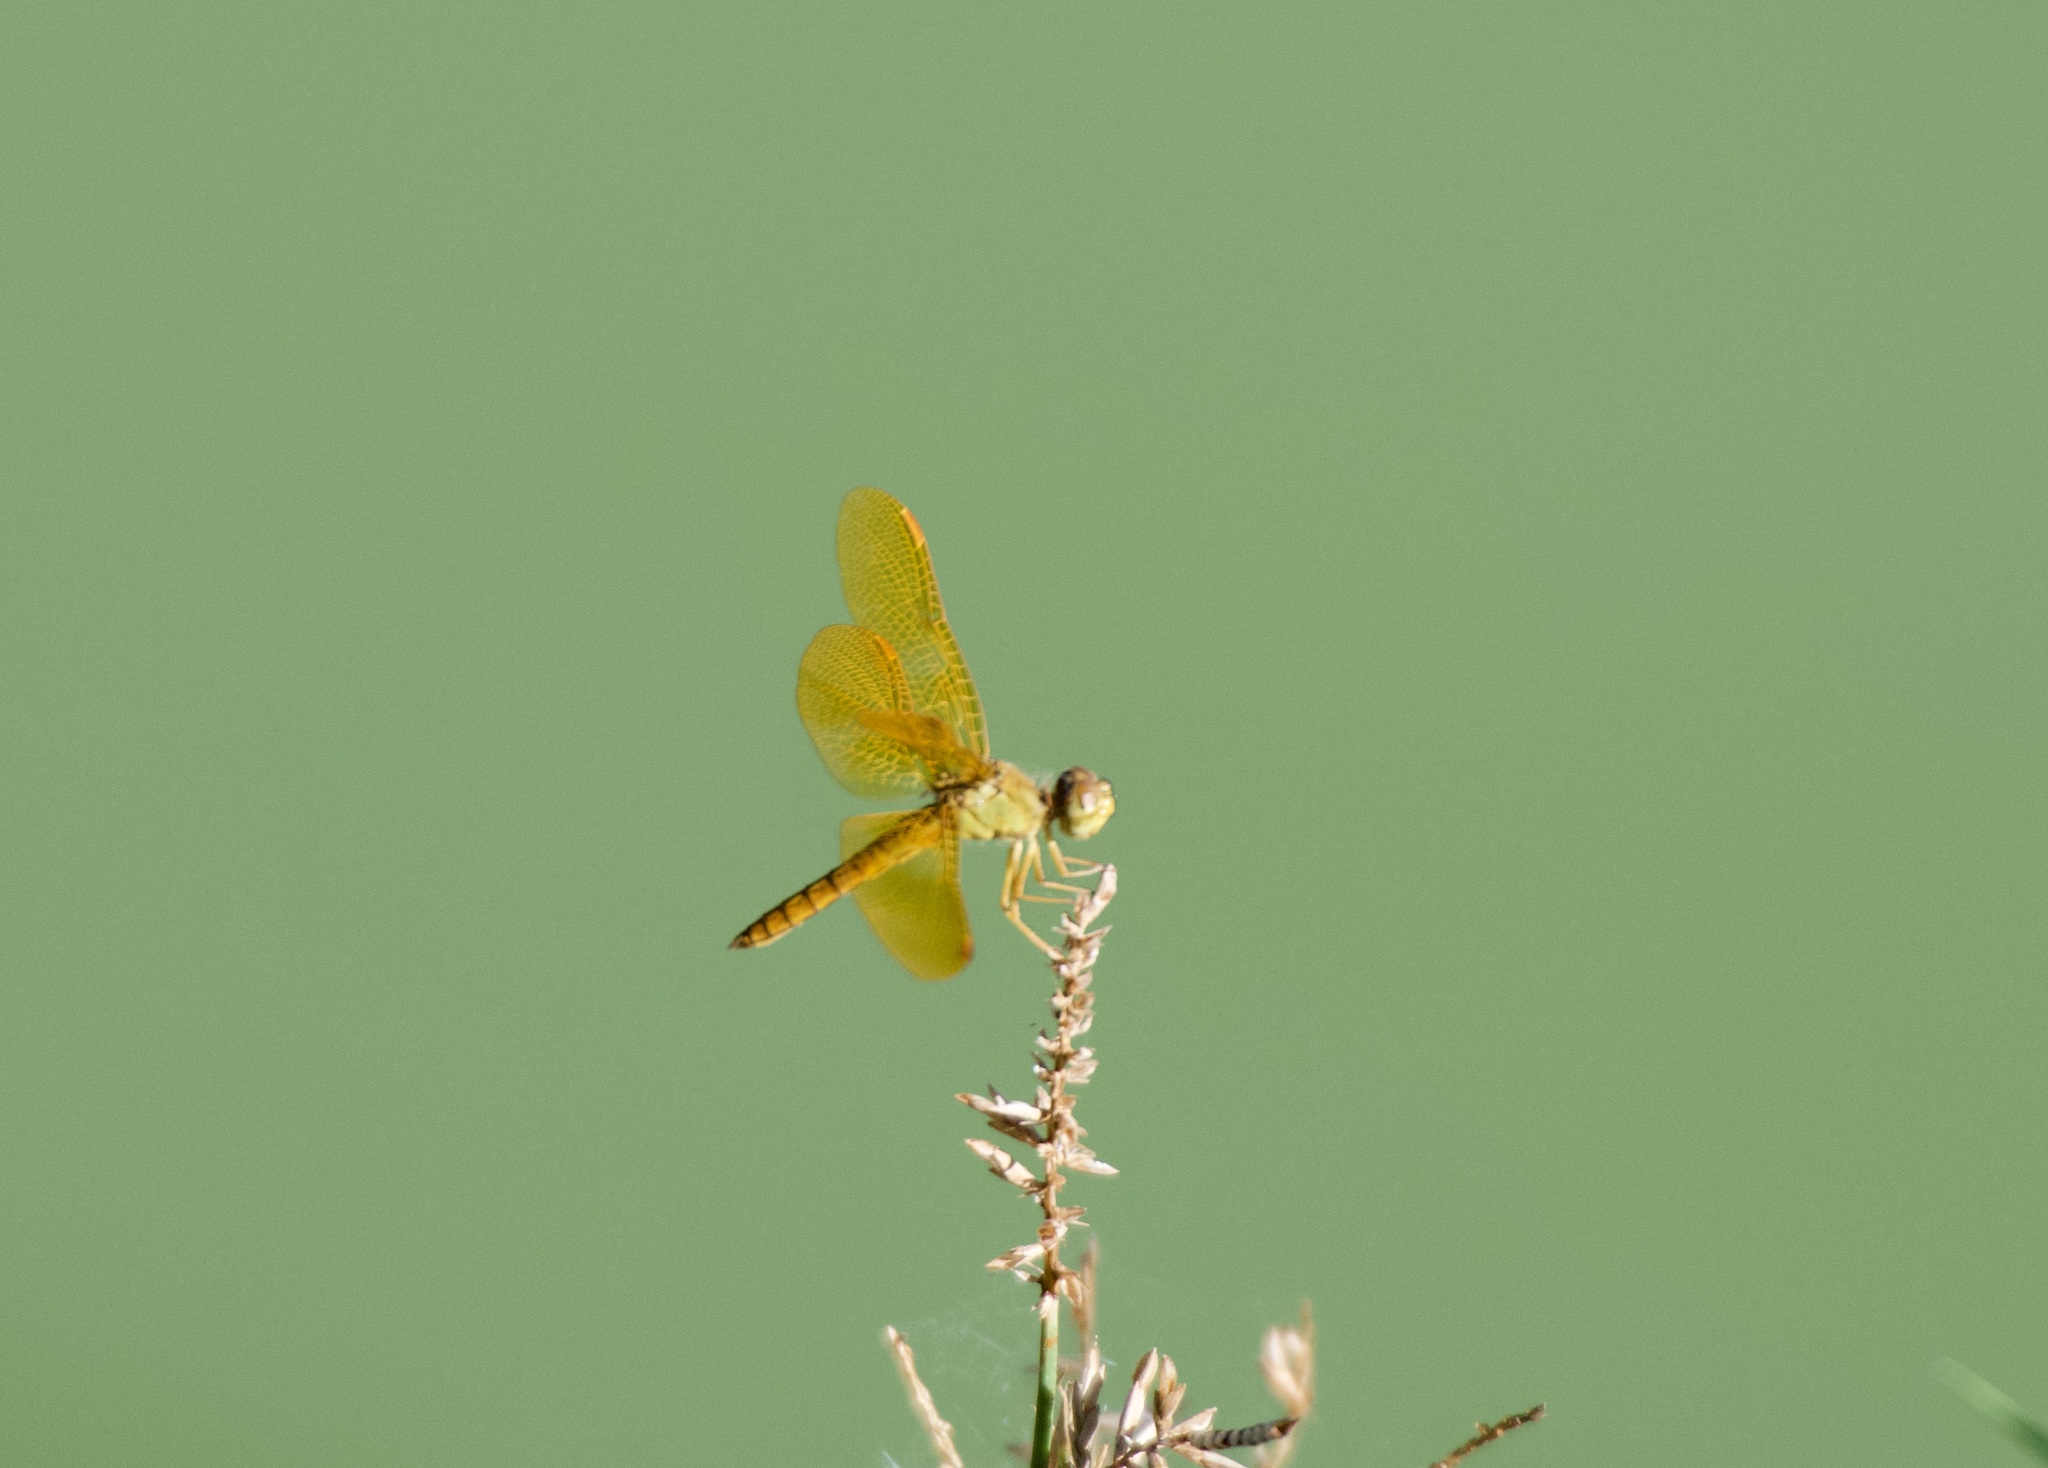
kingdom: Animalia
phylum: Arthropoda
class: Insecta
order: Odonata
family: Libellulidae
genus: Perithemis
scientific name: Perithemis intensa
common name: Mexican amberwing
